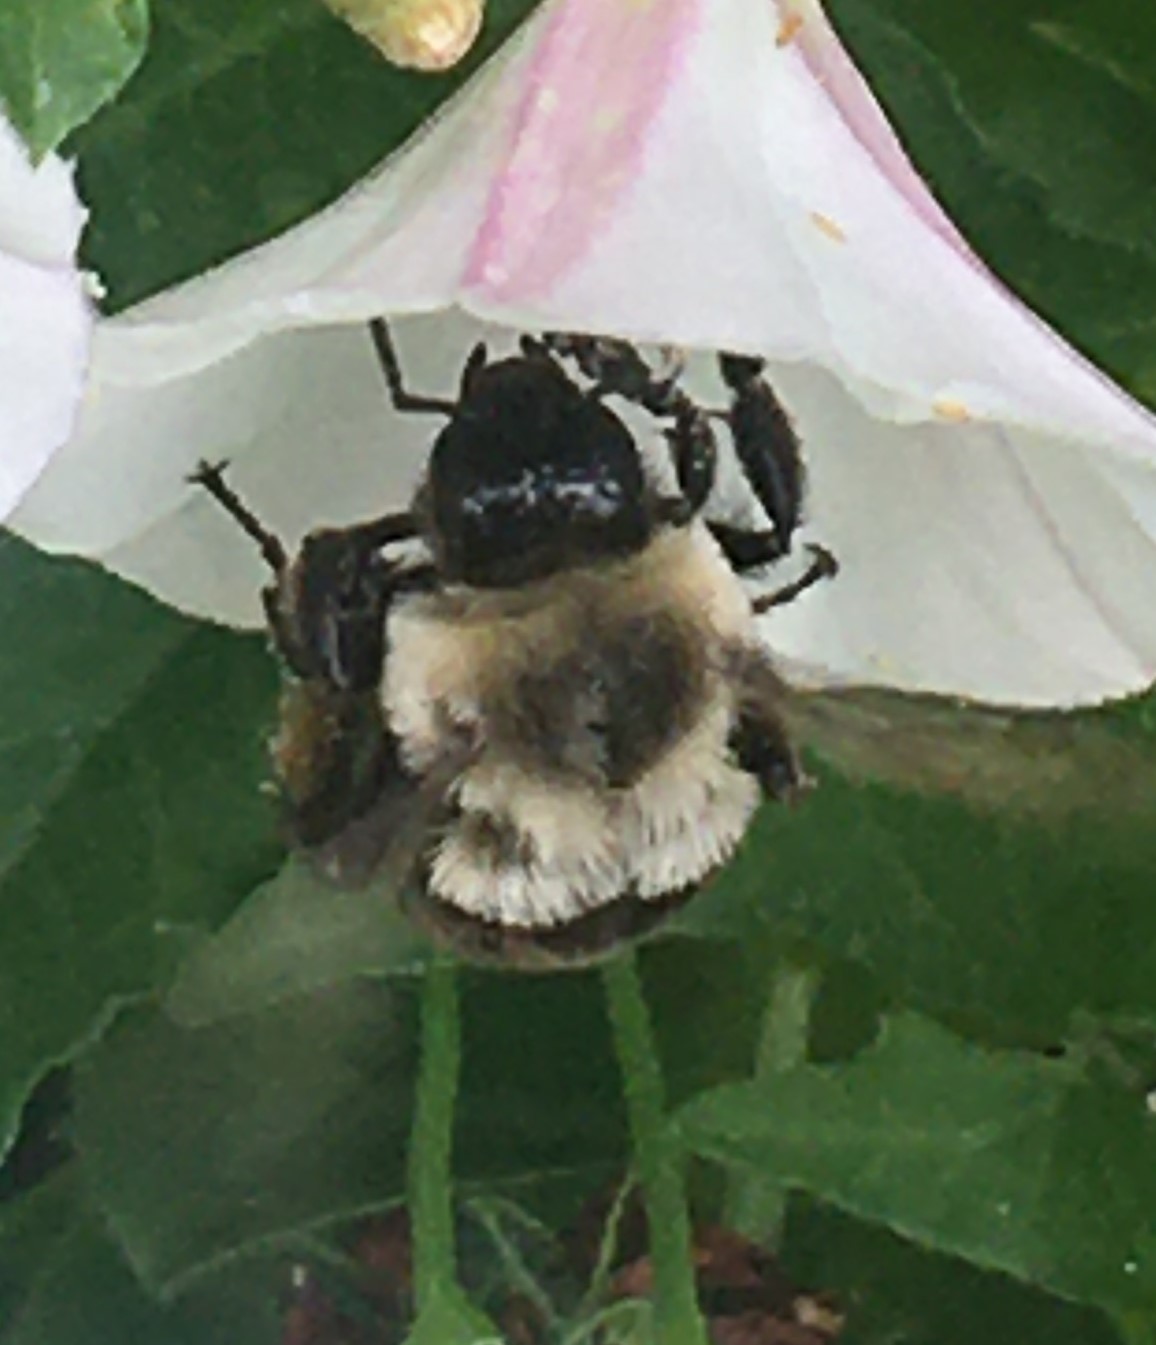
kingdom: Animalia
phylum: Arthropoda
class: Insecta
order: Hymenoptera
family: Apidae
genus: Bombus
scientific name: Bombus impatiens
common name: Common eastern bumble bee
